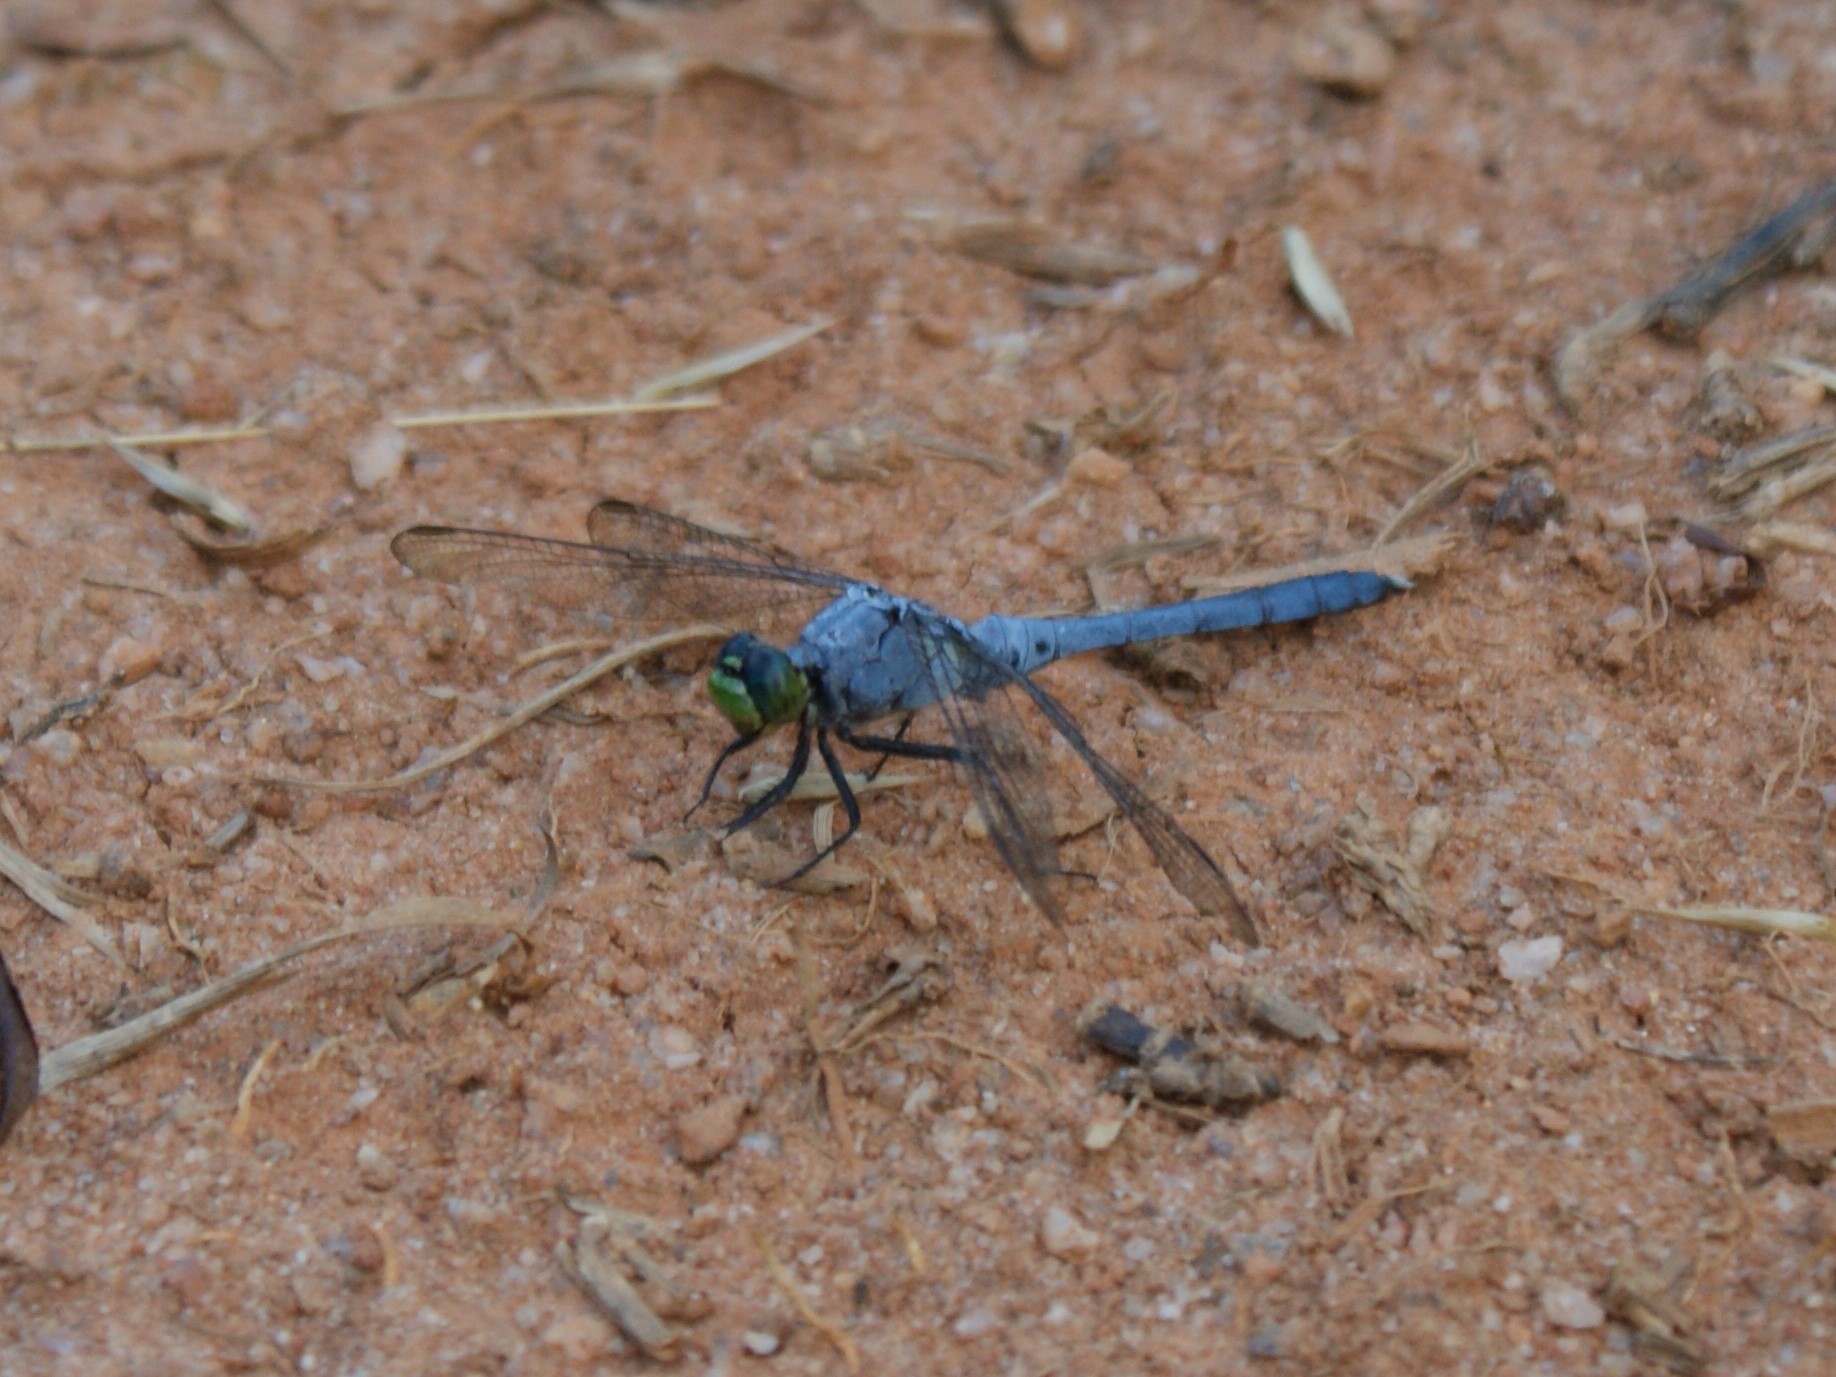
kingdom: Animalia
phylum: Arthropoda
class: Insecta
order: Odonata
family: Libellulidae
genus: Erythemis
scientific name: Erythemis simplicicollis
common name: Eastern pondhawk
